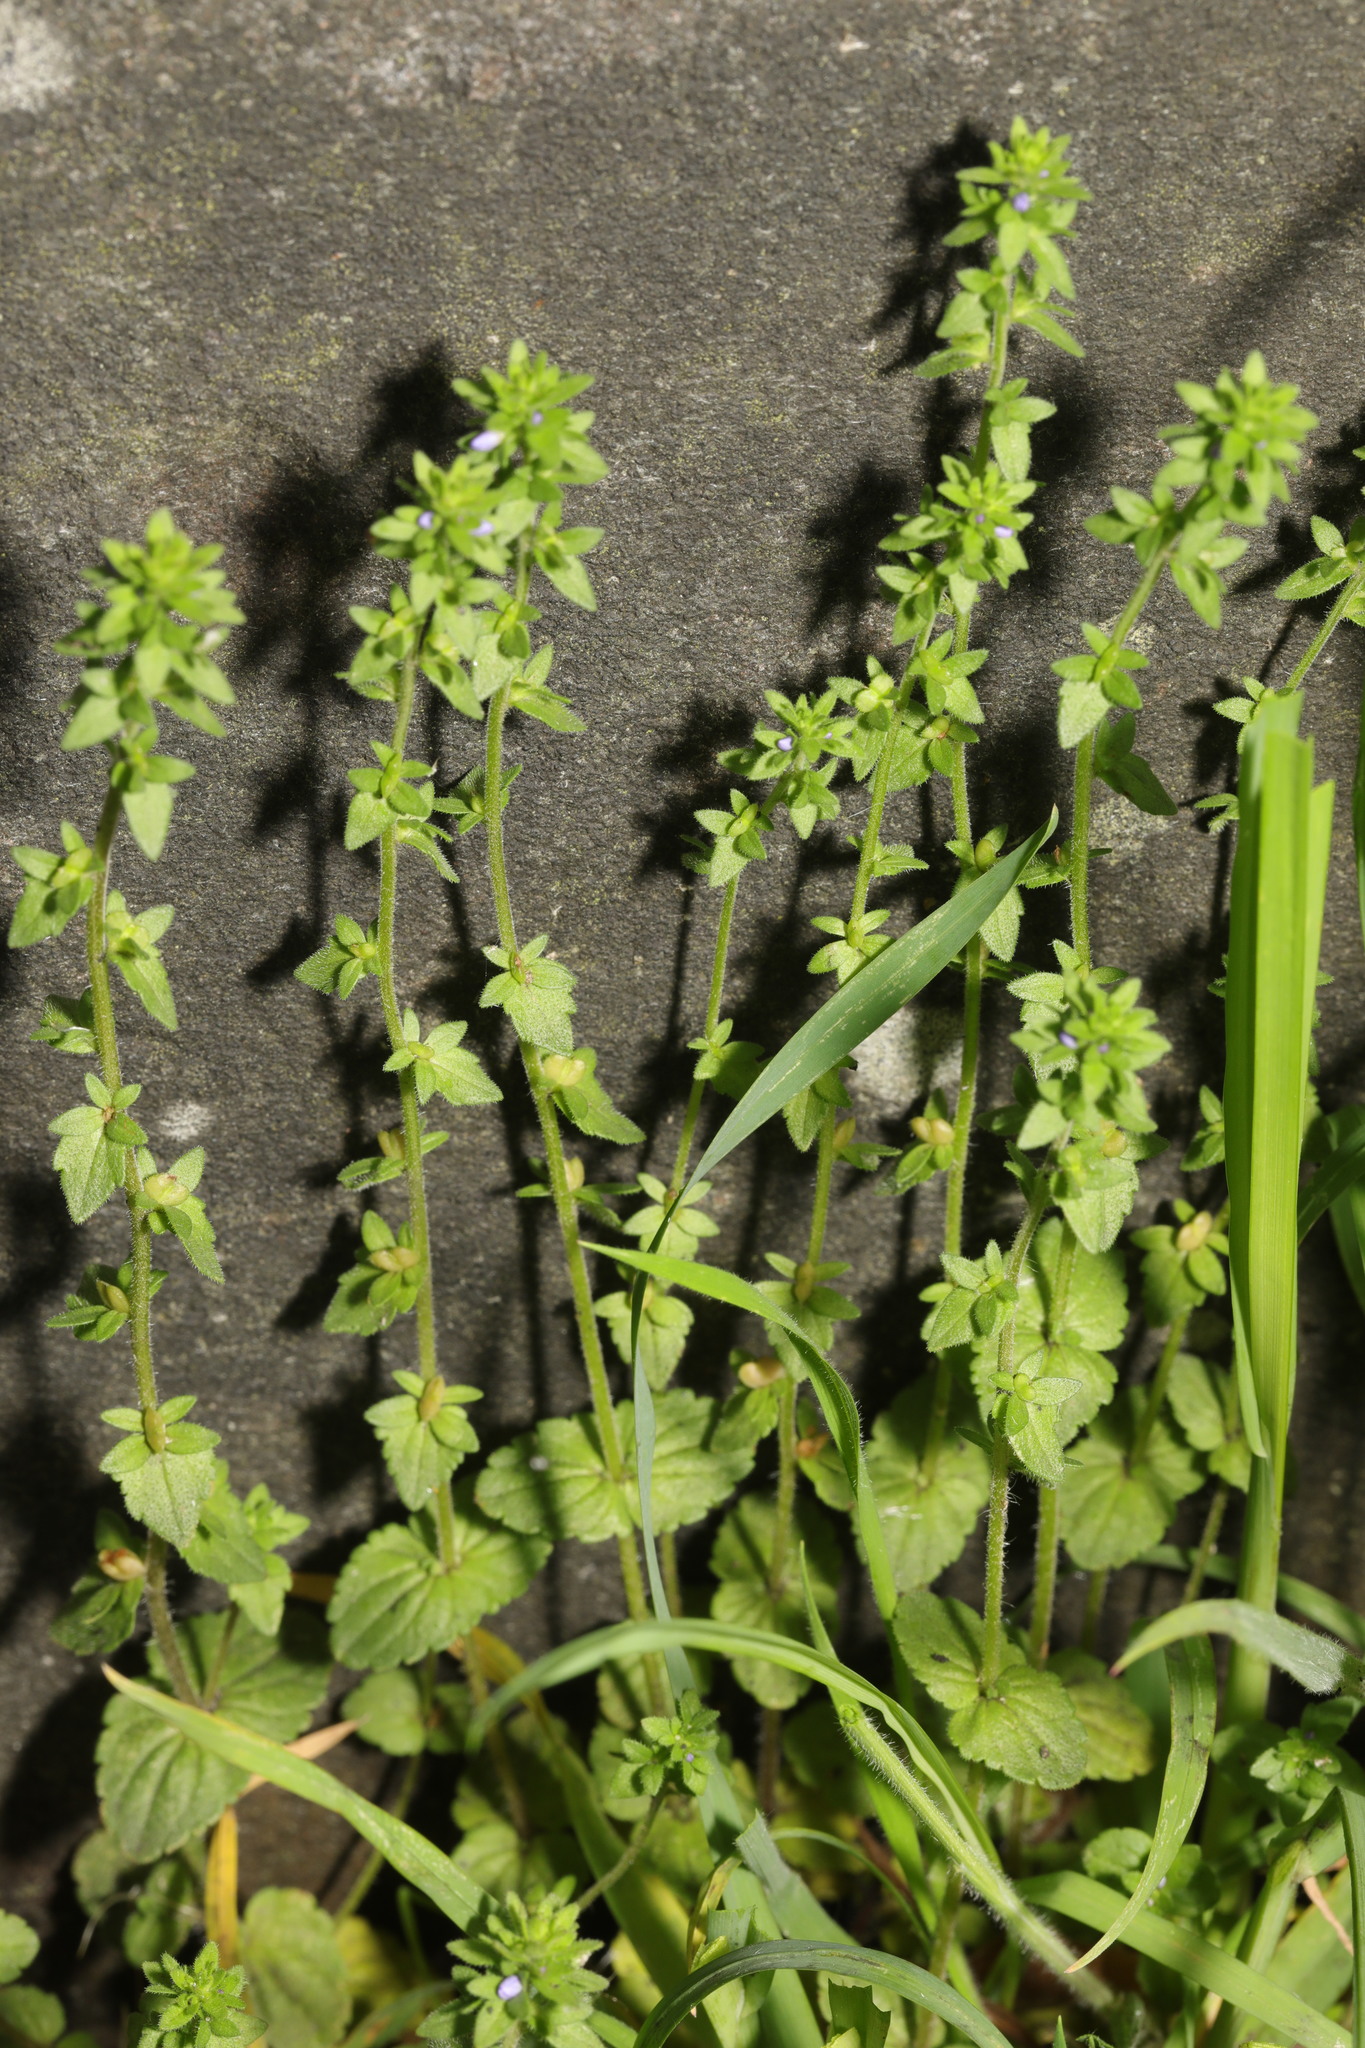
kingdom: Plantae
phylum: Tracheophyta
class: Magnoliopsida
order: Lamiales
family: Plantaginaceae
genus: Veronica
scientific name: Veronica arvensis
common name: Corn speedwell
